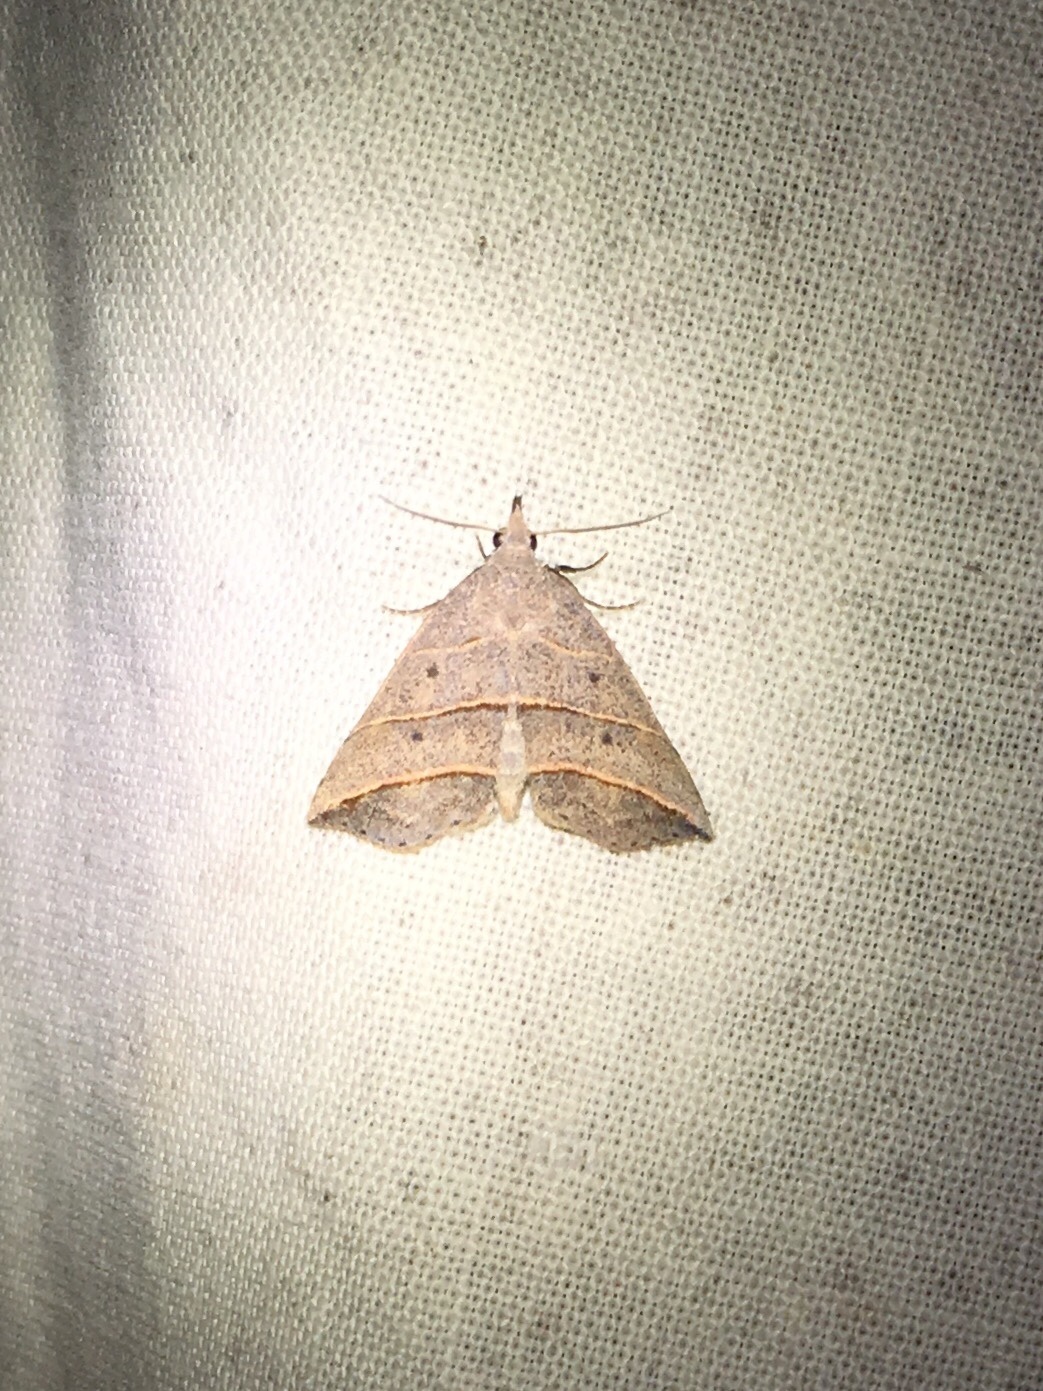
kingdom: Animalia
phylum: Arthropoda
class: Insecta
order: Lepidoptera
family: Erebidae
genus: Colobochyla
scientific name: Colobochyla interpuncta
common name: Yellow-lined owlet
